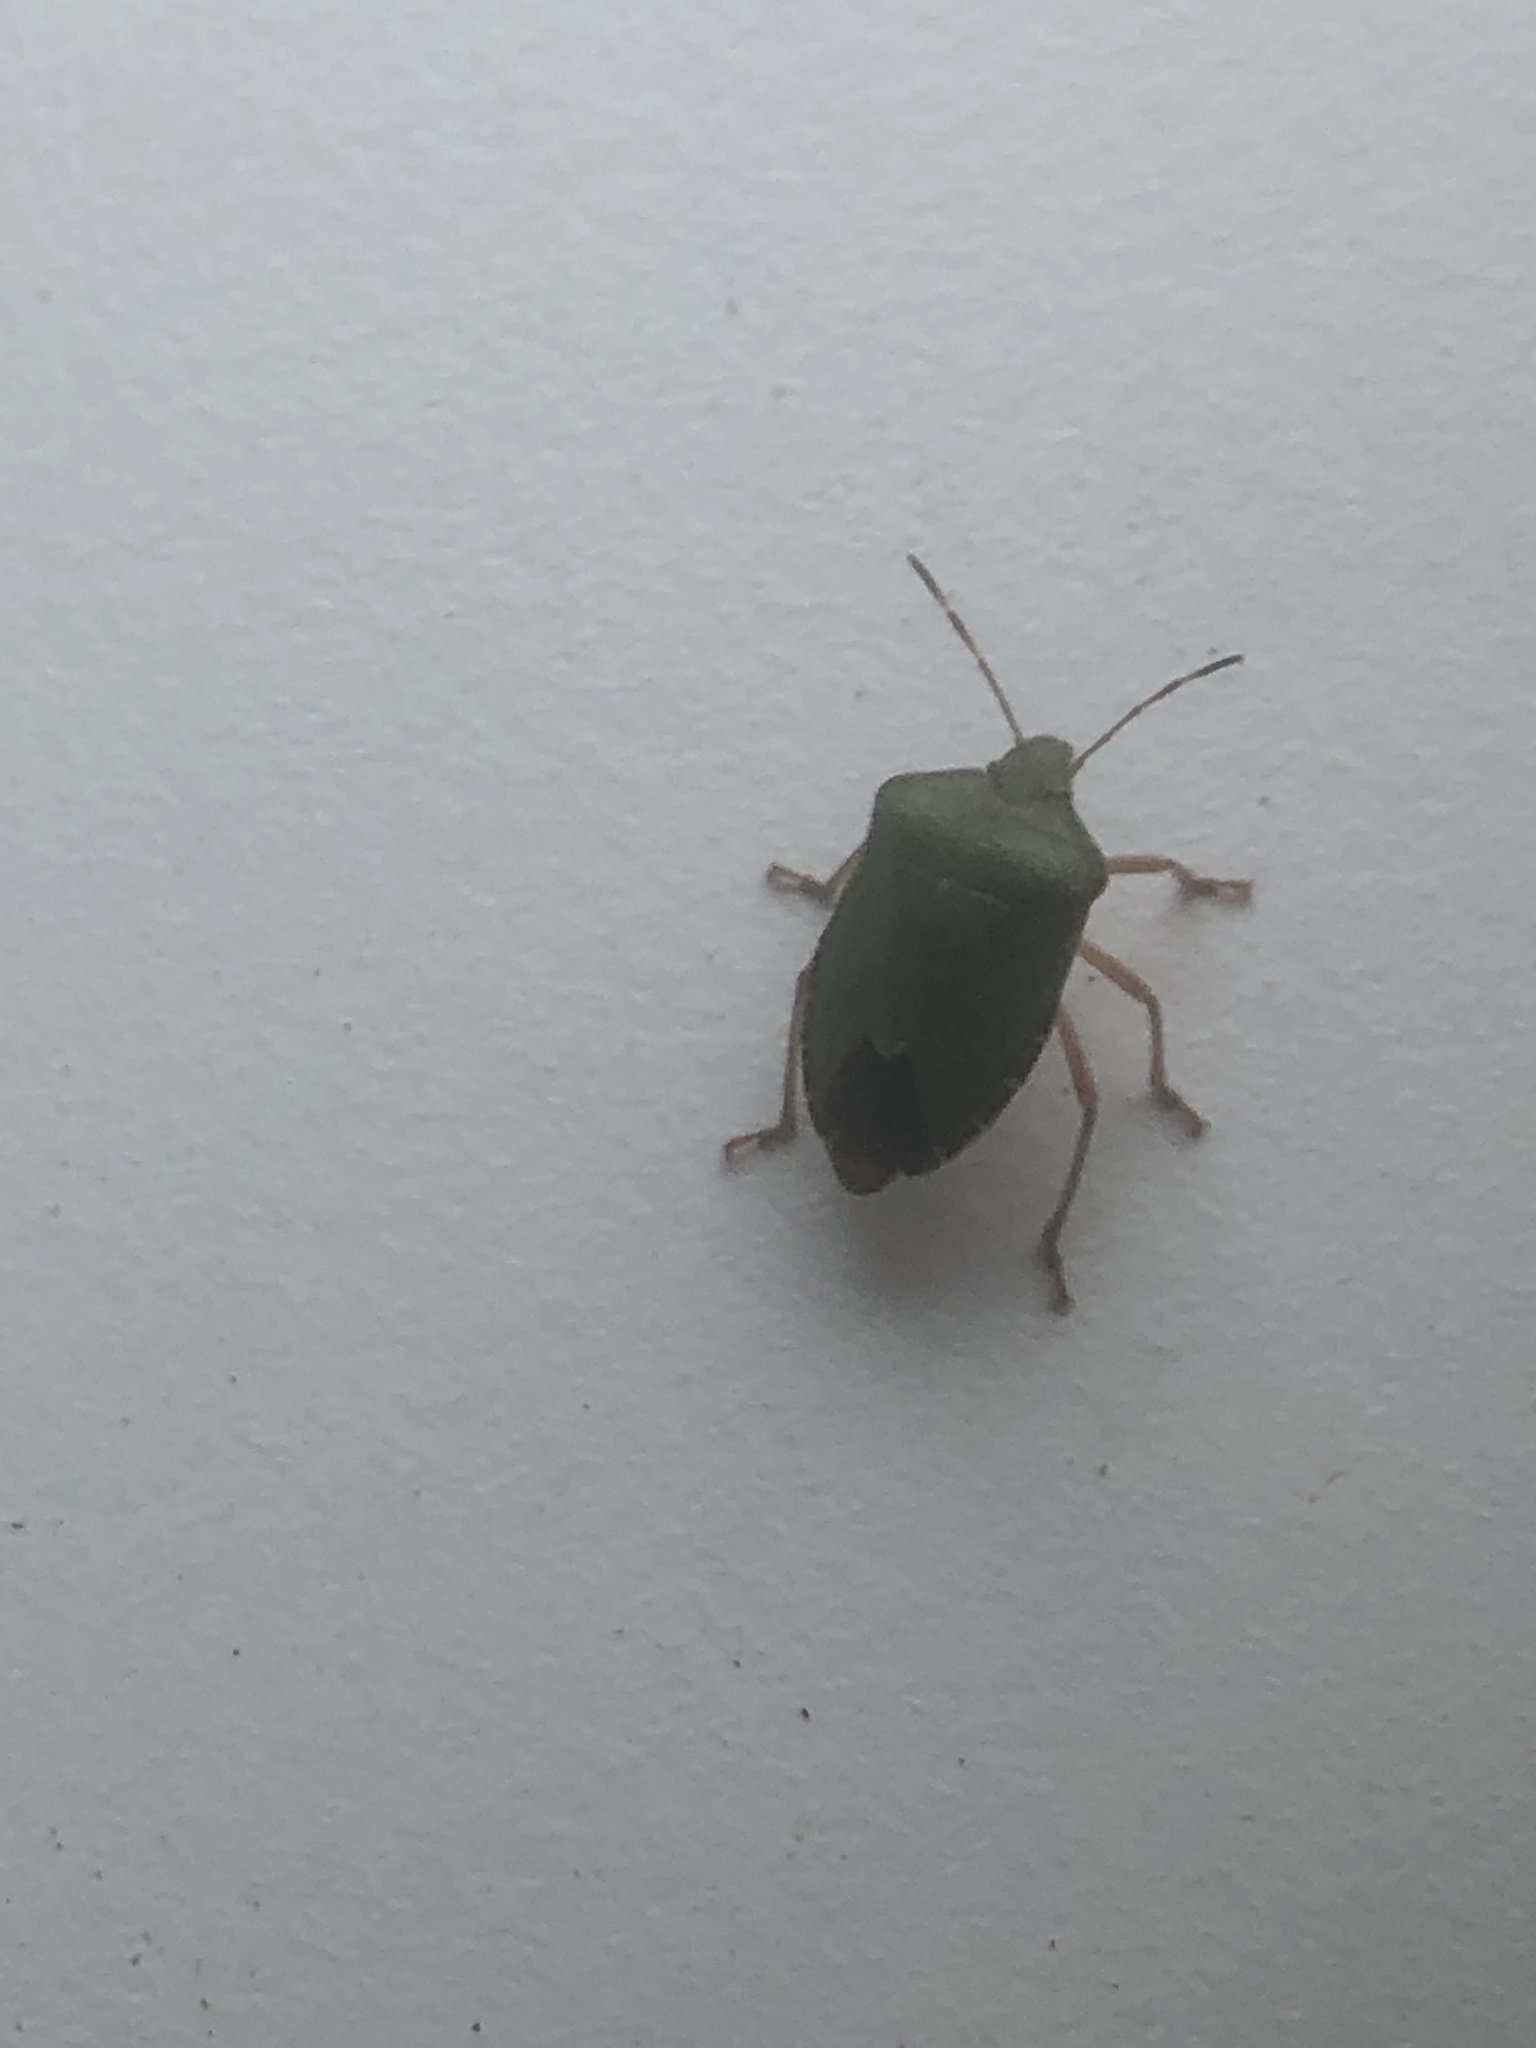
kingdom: Animalia
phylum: Arthropoda
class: Insecta
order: Hemiptera
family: Pentatomidae
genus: Palomena
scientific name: Palomena prasina
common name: Green shieldbug
